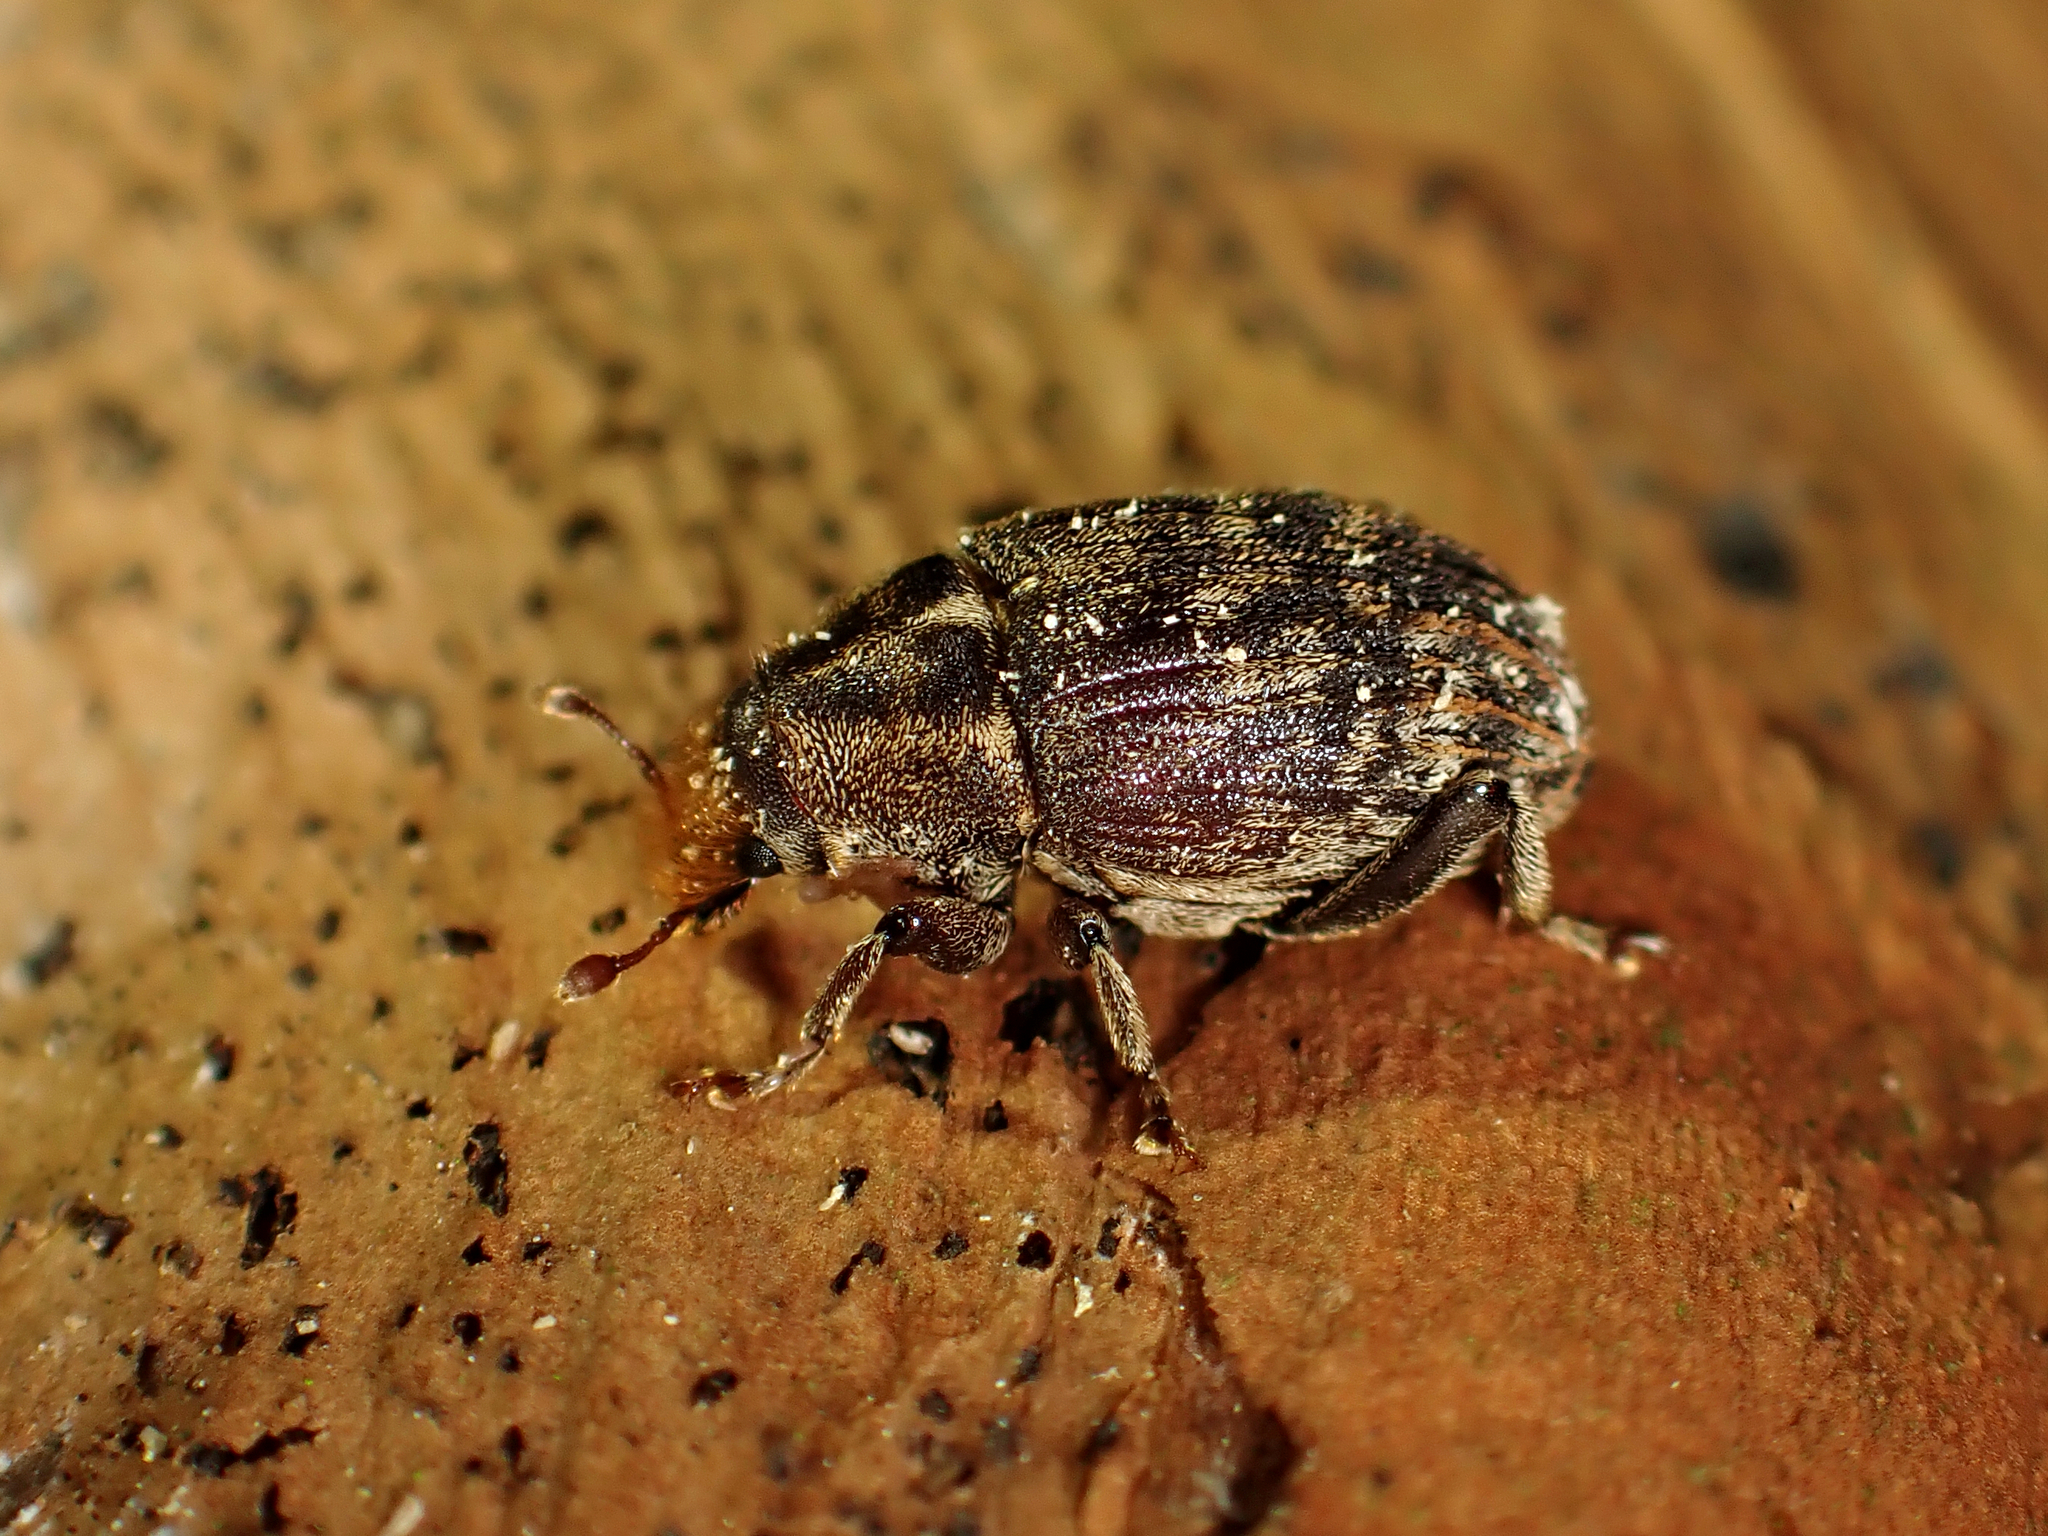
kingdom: Animalia
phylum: Arthropoda
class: Insecta
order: Coleoptera
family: Curculionidae
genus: Psepholax
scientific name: Psepholax sulcatus
